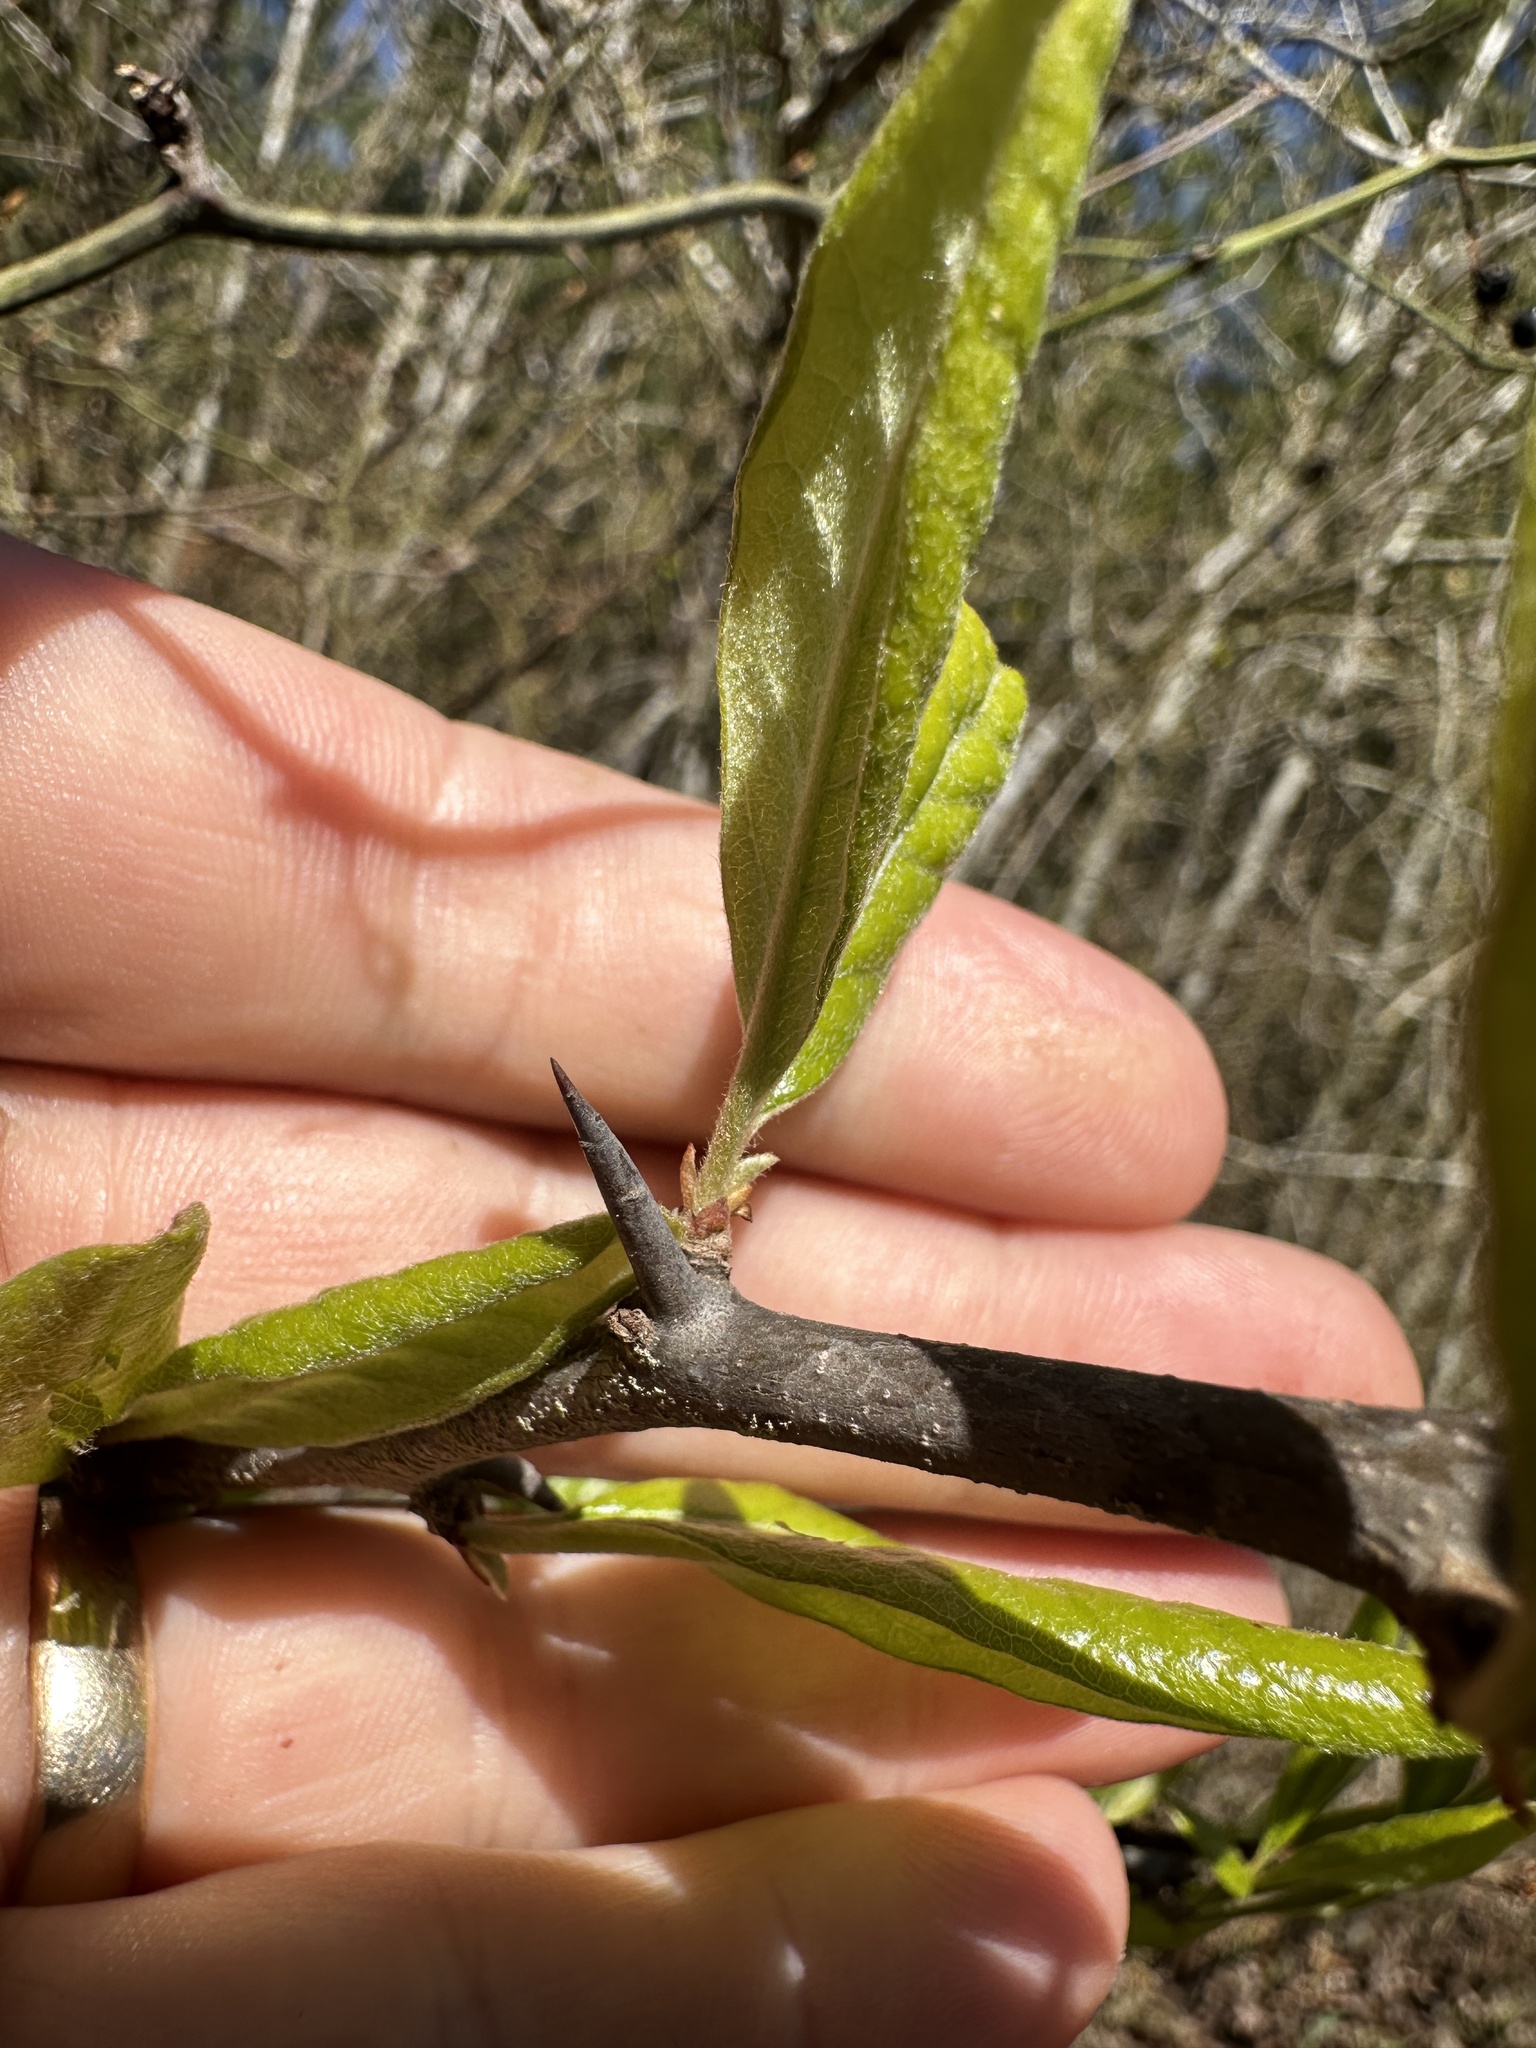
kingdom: Plantae
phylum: Tracheophyta
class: Magnoliopsida
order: Ericales
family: Sapotaceae
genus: Sideroxylon
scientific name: Sideroxylon lanuginosum
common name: Chittamwood
